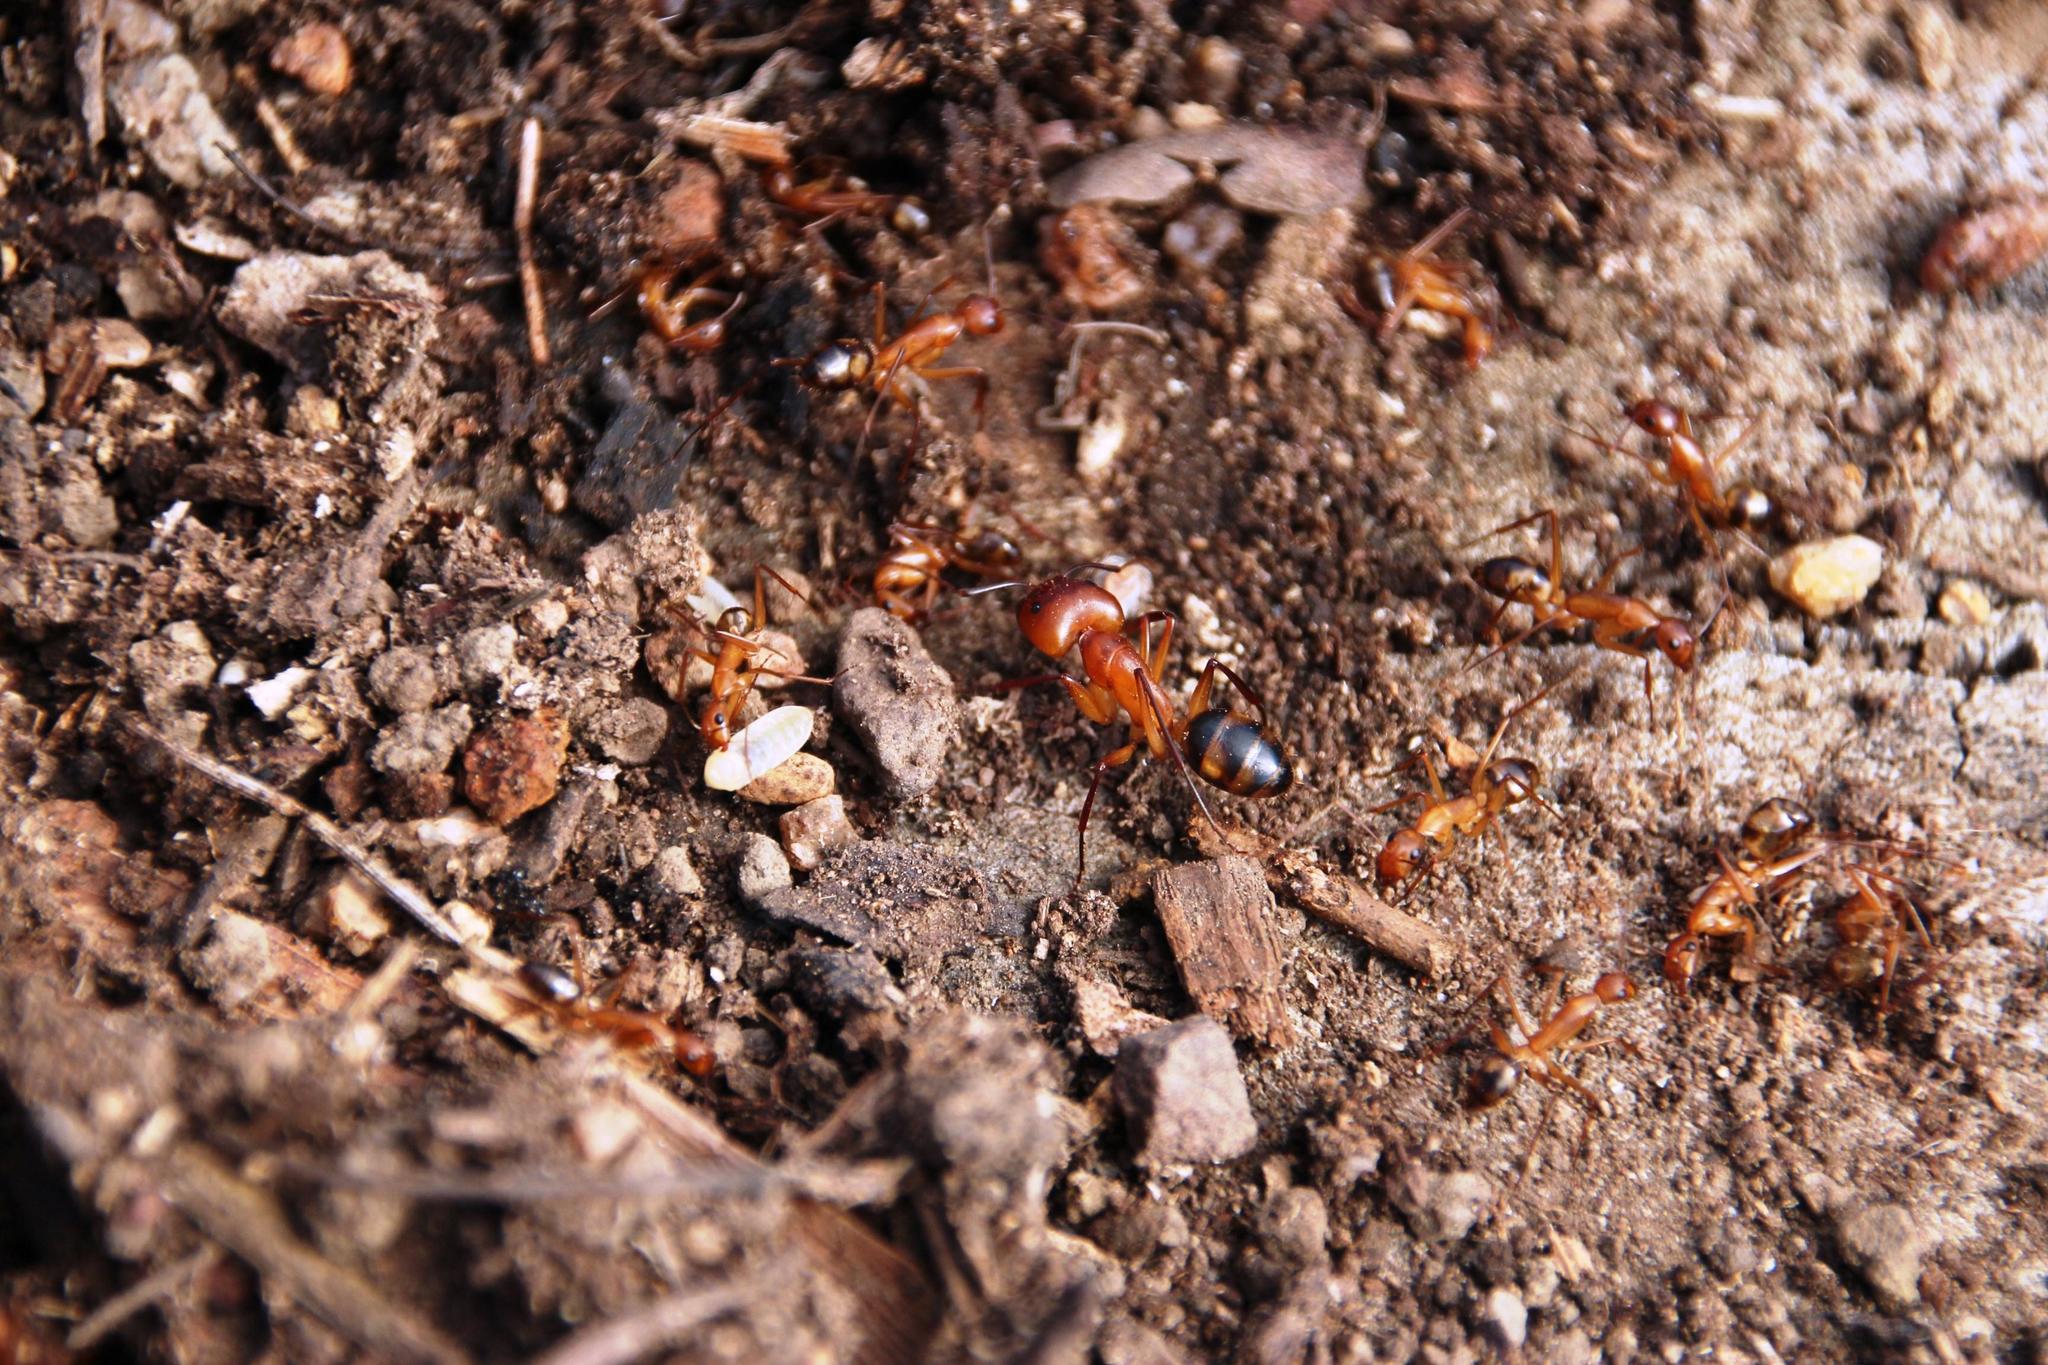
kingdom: Animalia
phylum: Arthropoda
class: Insecta
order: Hymenoptera
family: Formicidae
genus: Camponotus
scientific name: Camponotus maculatus
